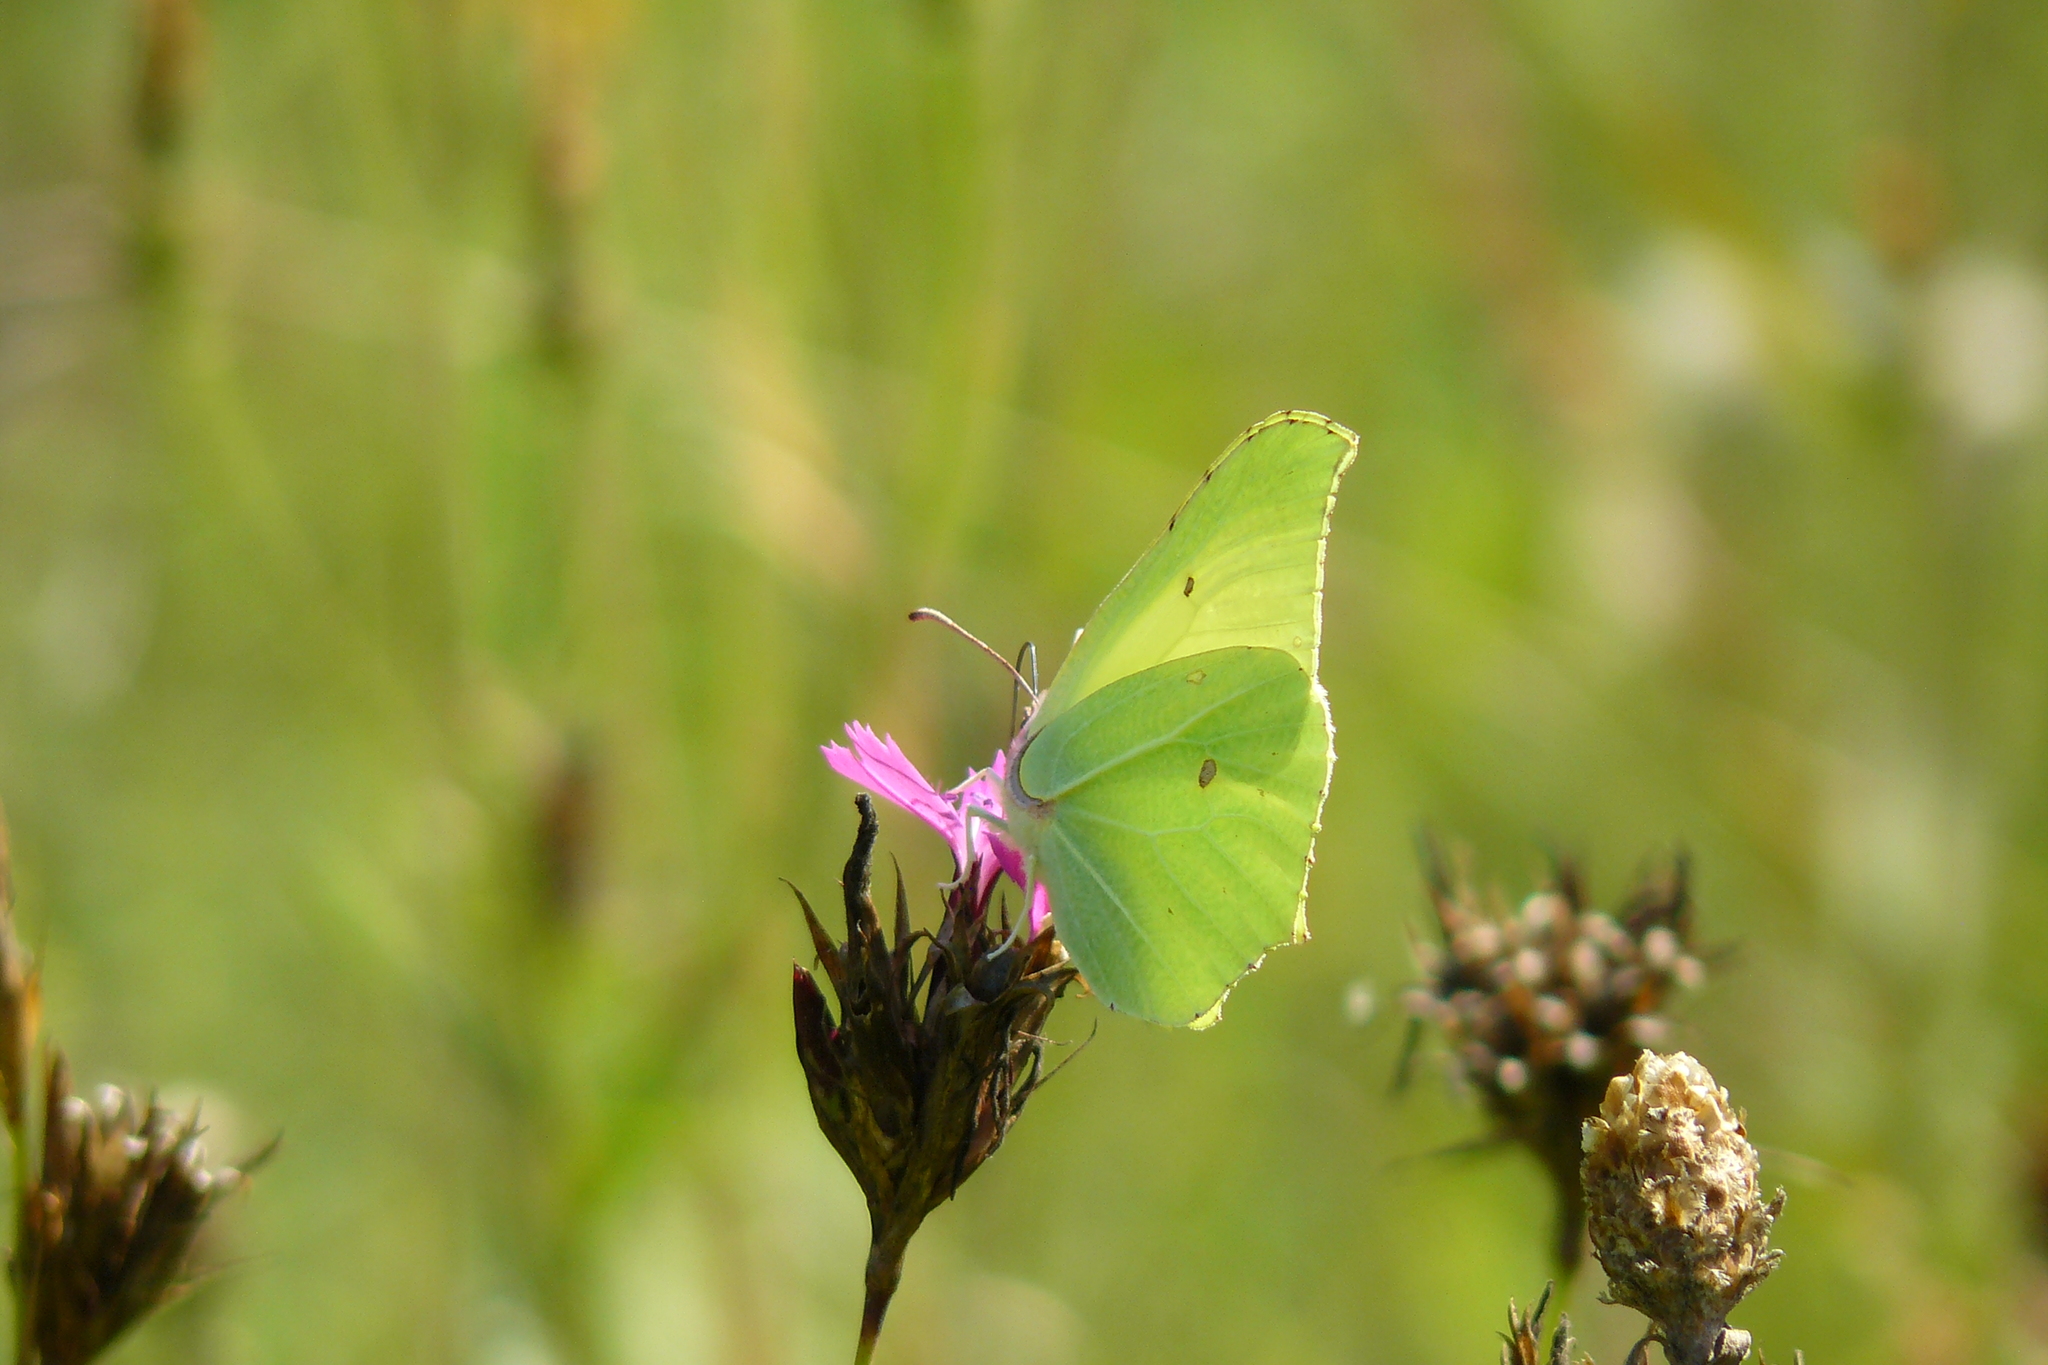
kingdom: Animalia
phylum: Arthropoda
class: Insecta
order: Lepidoptera
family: Pieridae
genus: Gonepteryx
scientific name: Gonepteryx rhamni
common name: Brimstone
